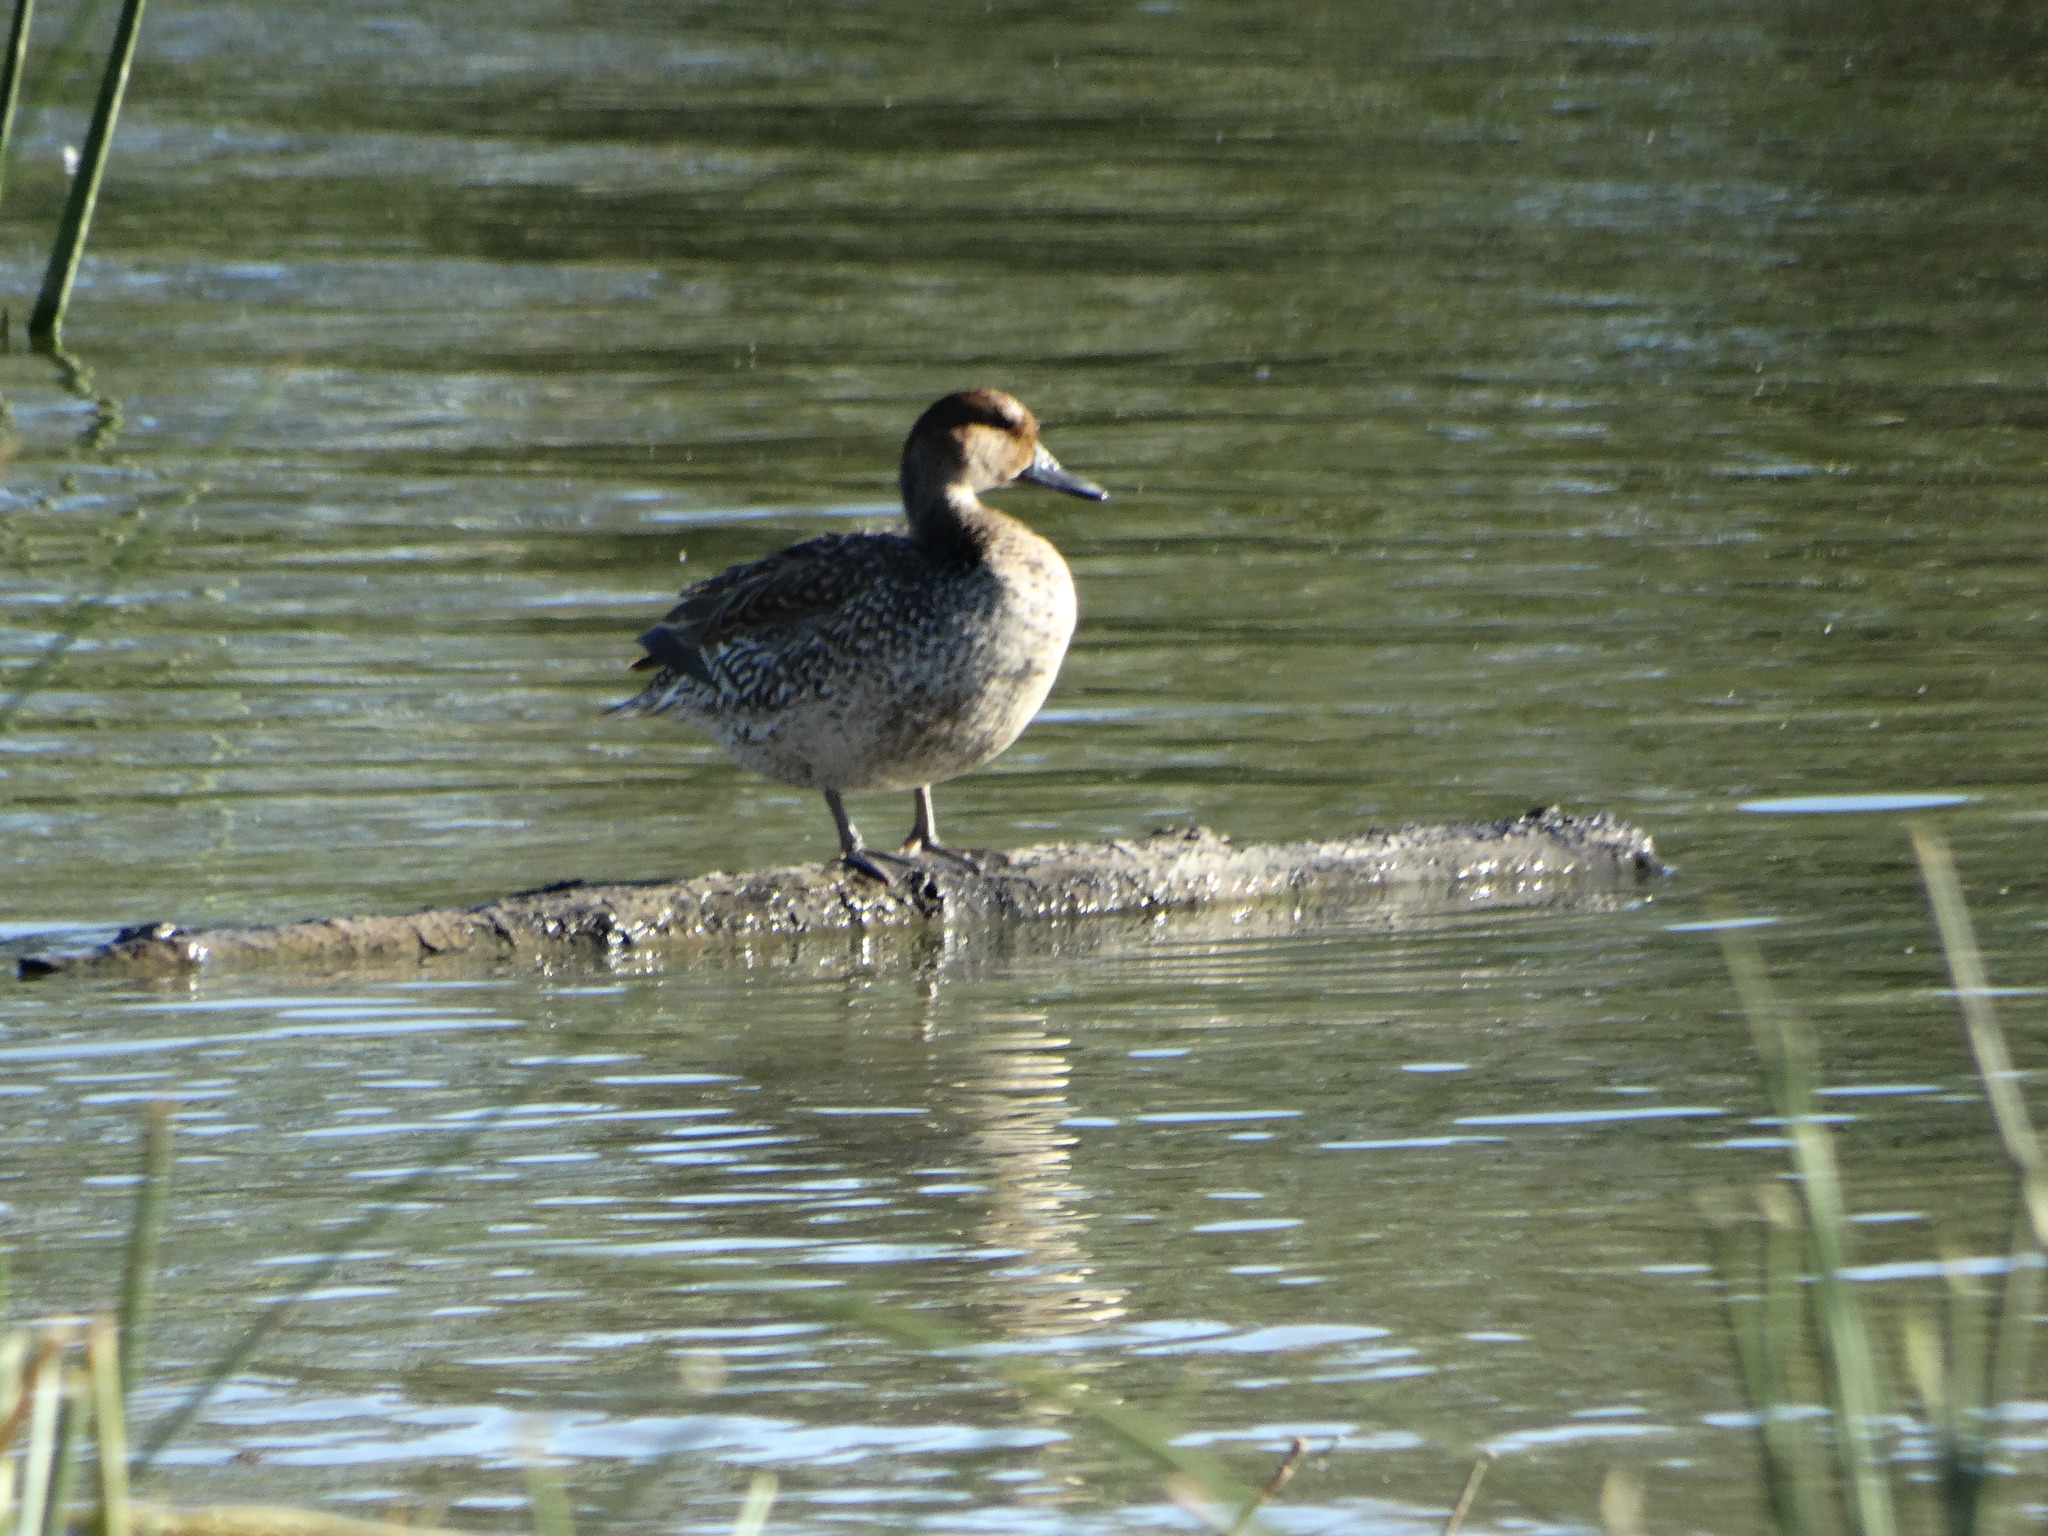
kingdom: Animalia
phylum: Chordata
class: Aves
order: Anseriformes
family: Anatidae
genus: Anas
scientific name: Anas acuta
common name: Northern pintail
